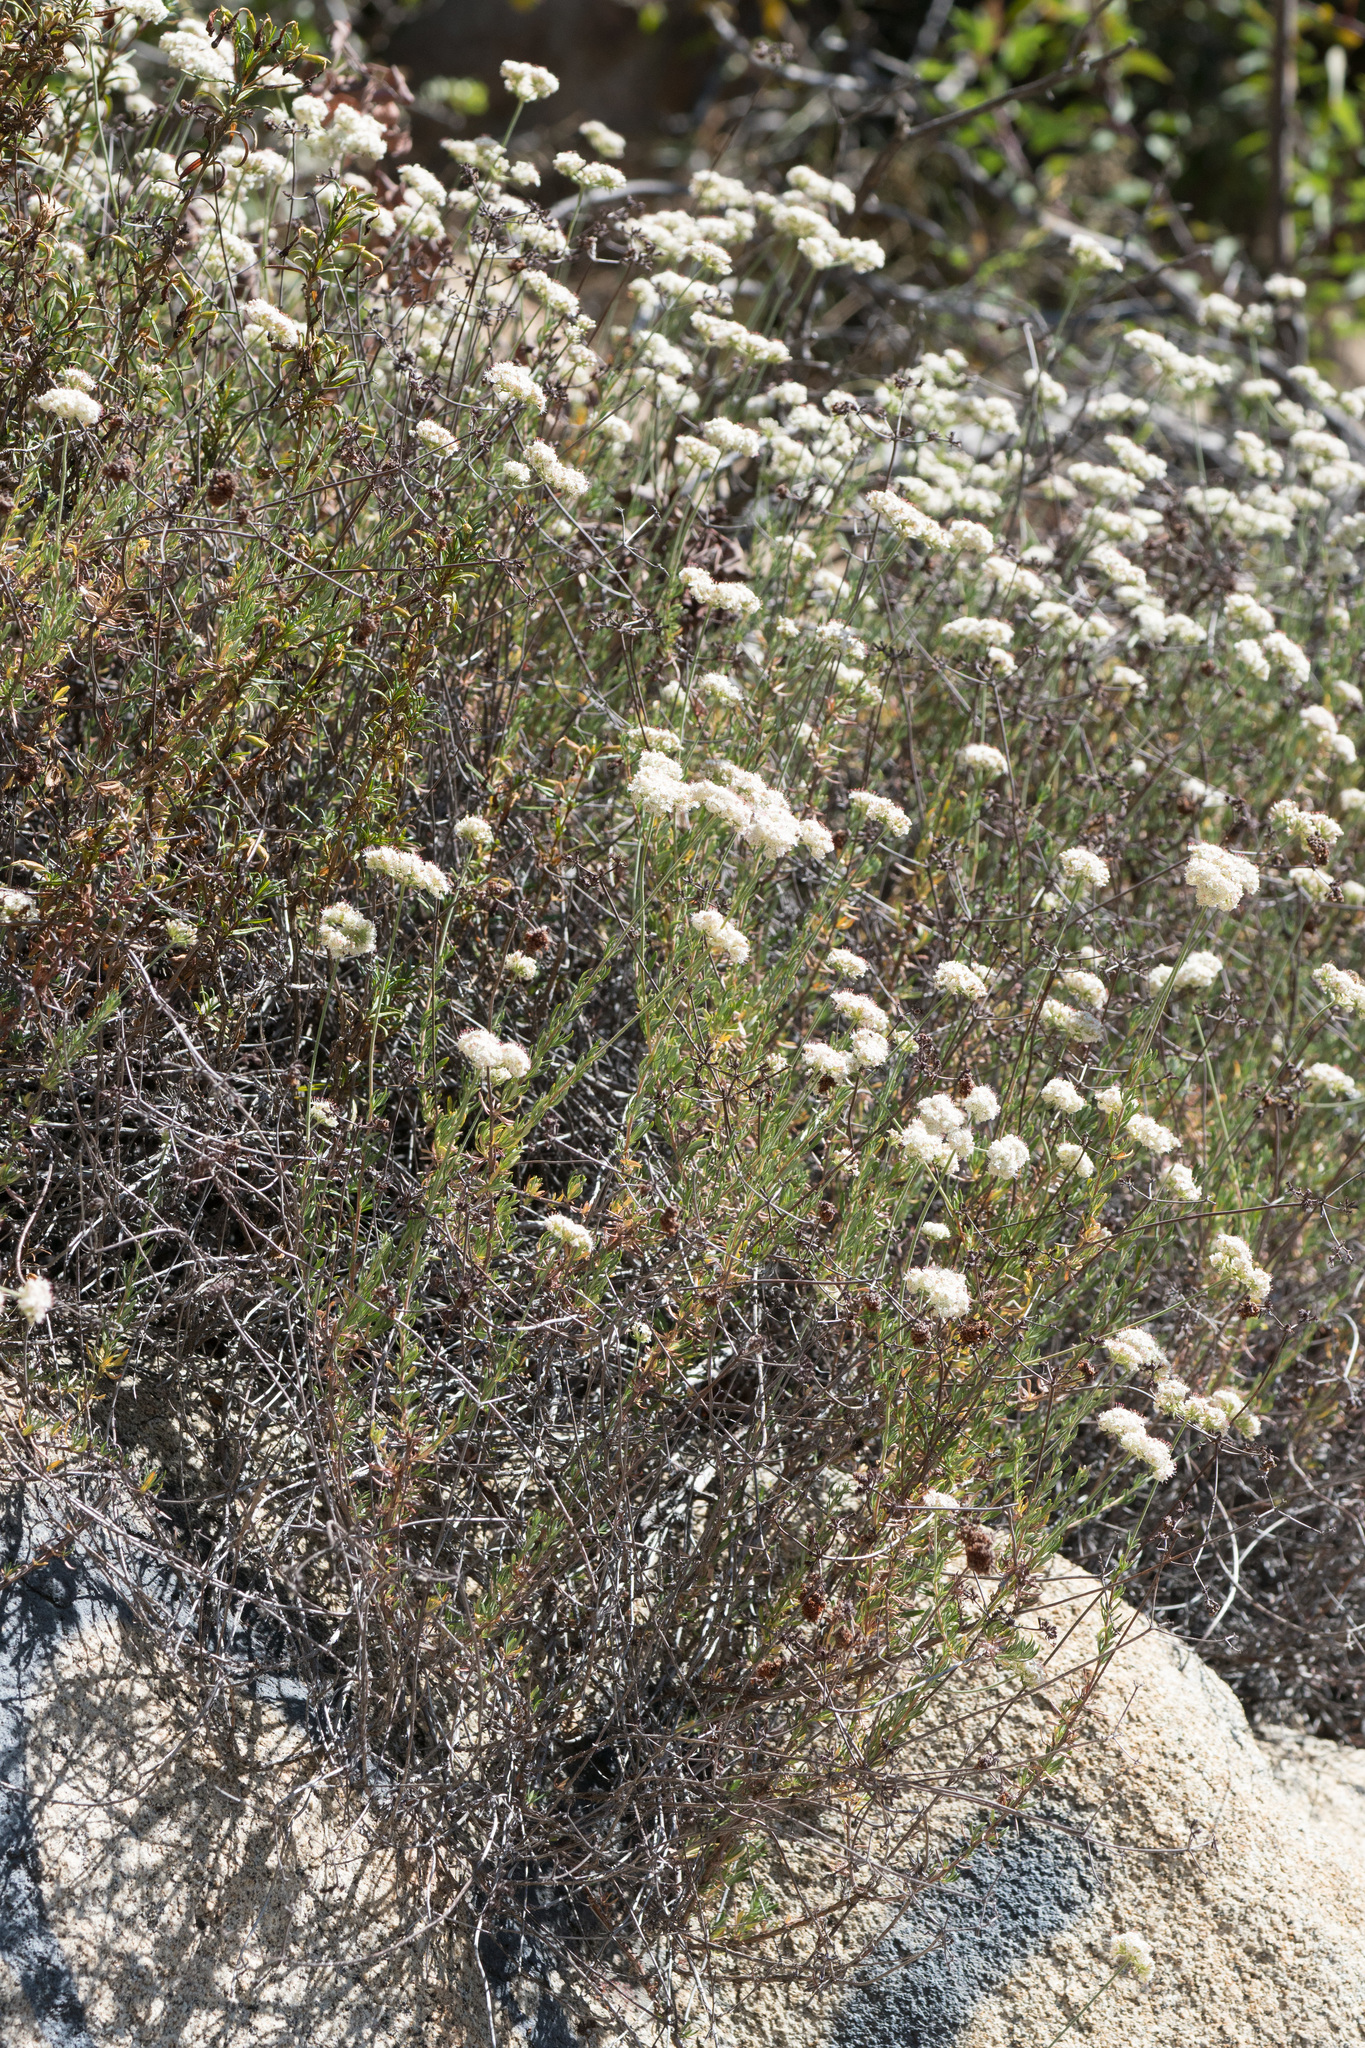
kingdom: Plantae
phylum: Tracheophyta
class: Magnoliopsida
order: Caryophyllales
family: Polygonaceae
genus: Eriogonum
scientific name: Eriogonum fasciculatum
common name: California wild buckwheat
